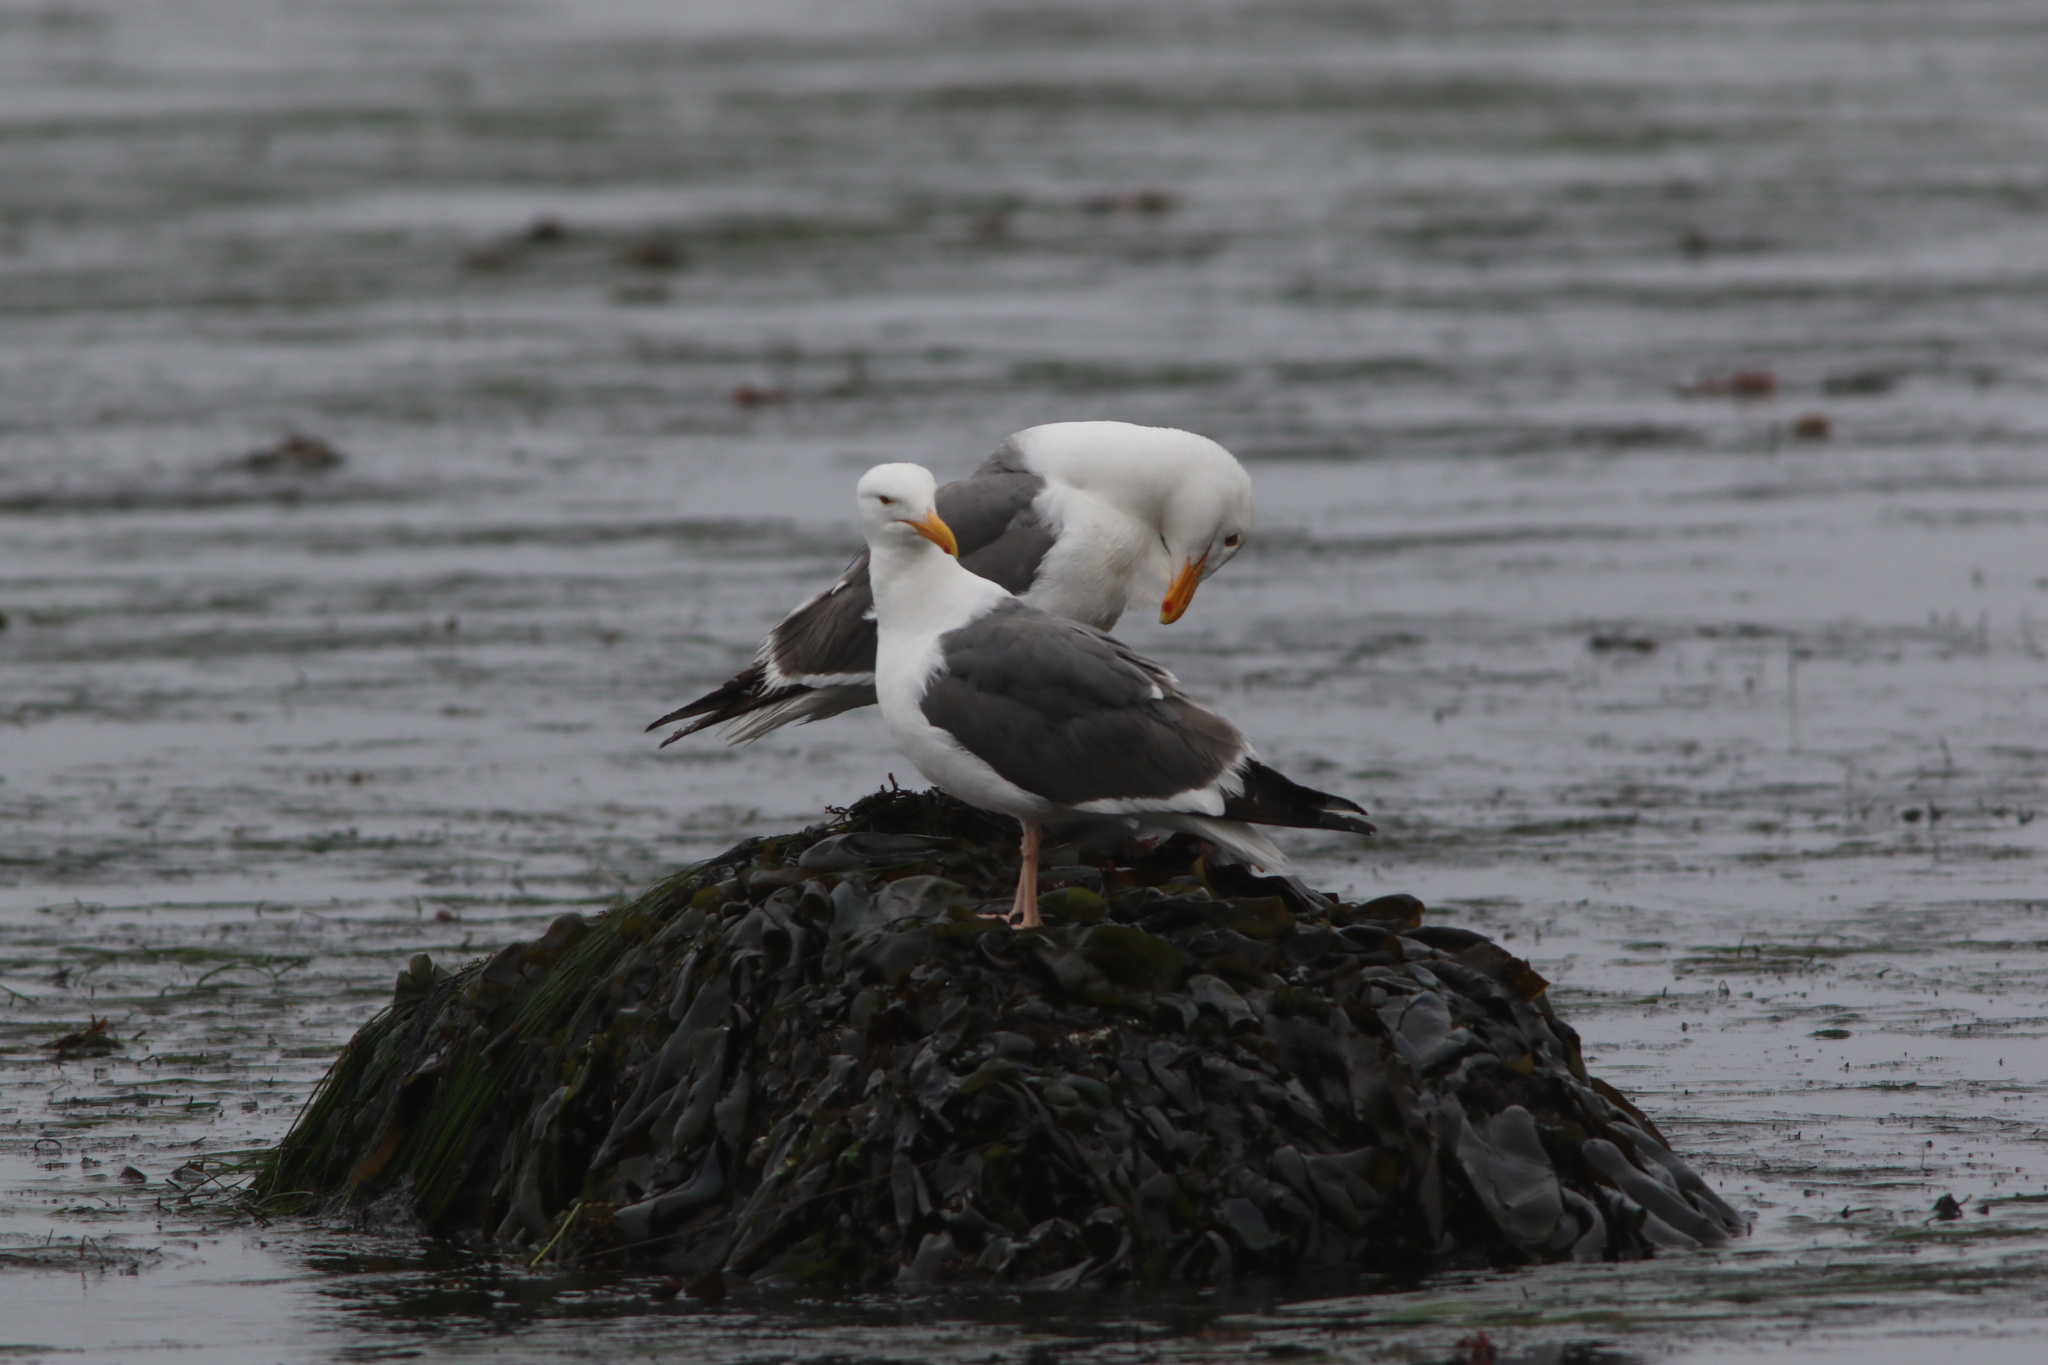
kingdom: Animalia
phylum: Chordata
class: Aves
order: Charadriiformes
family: Laridae
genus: Larus
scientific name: Larus occidentalis
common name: Western gull
